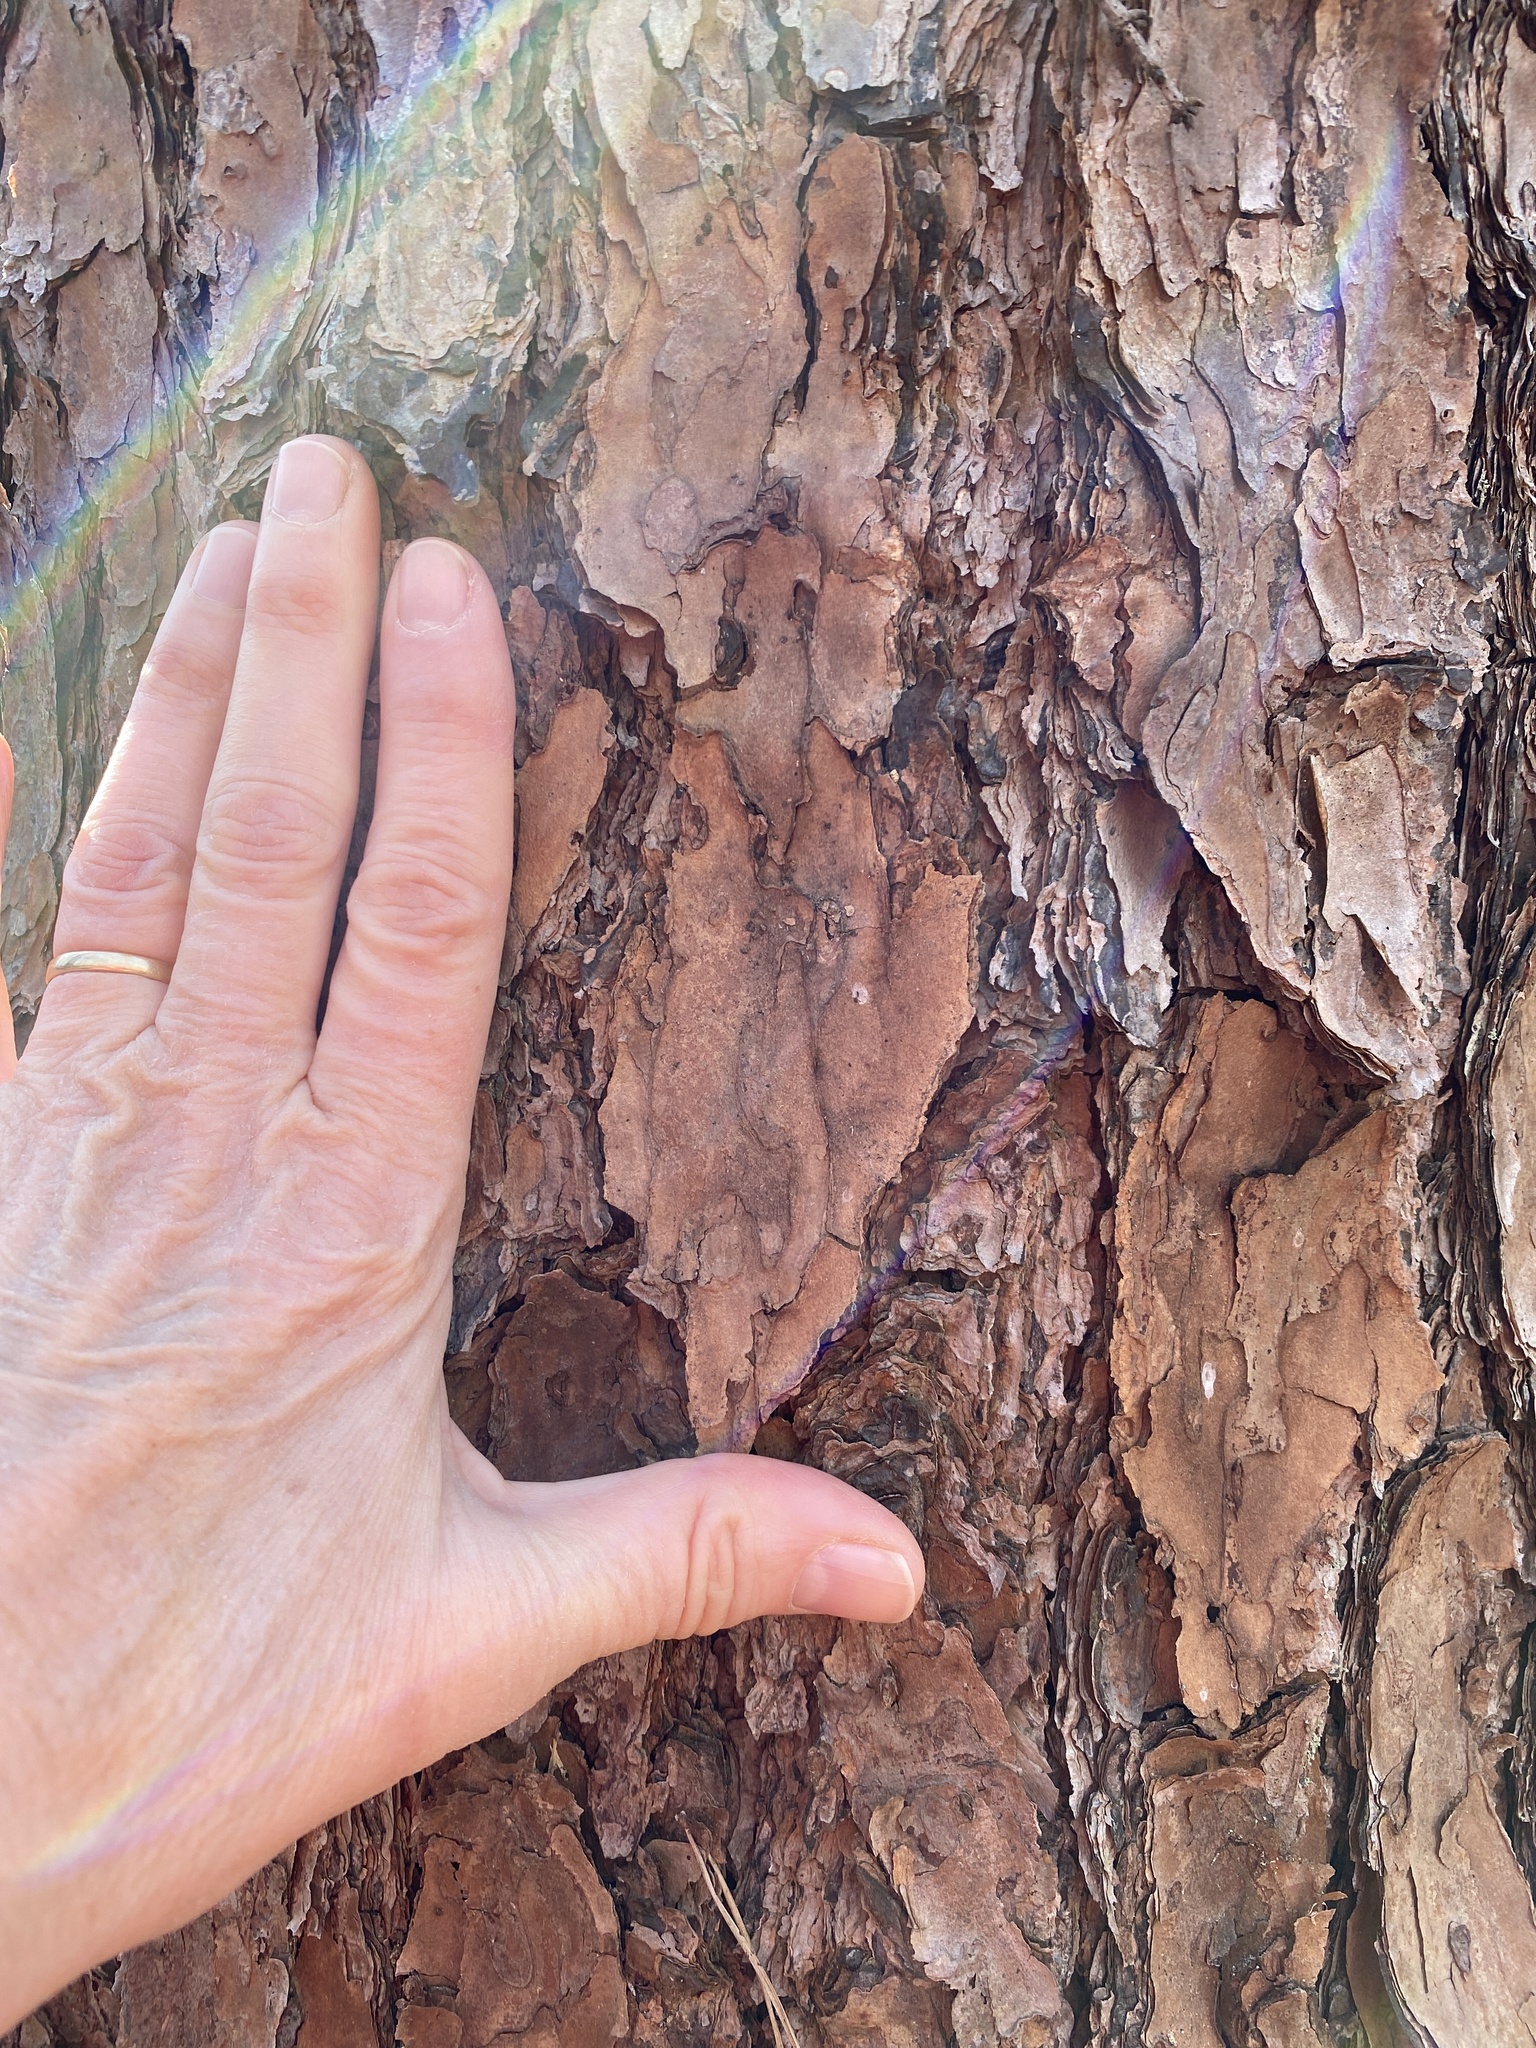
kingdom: Plantae
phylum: Tracheophyta
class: Pinopsida
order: Pinales
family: Pinaceae
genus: Pinus
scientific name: Pinus virginiana
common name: Scrub pine
